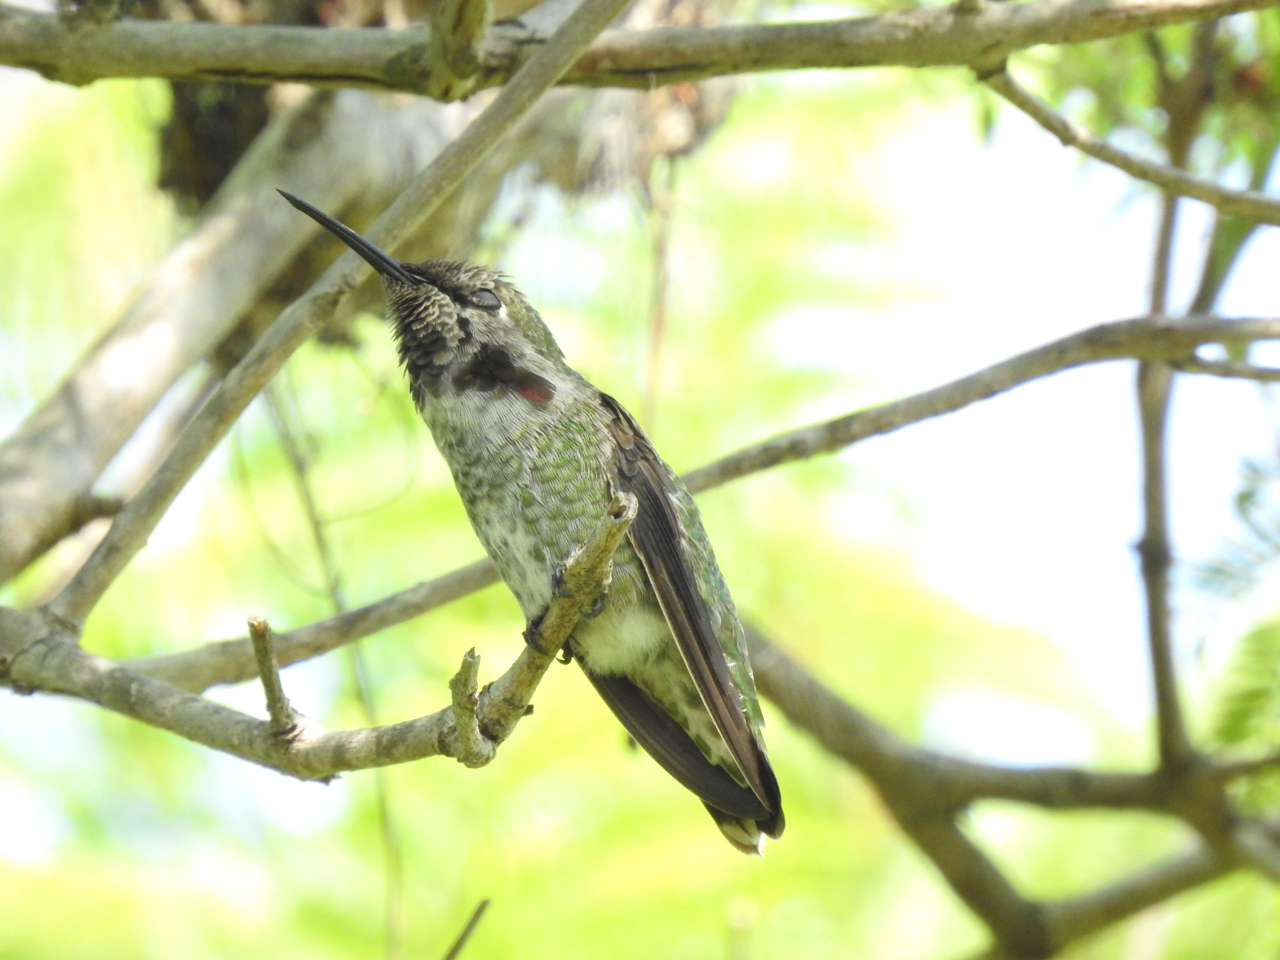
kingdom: Animalia
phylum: Chordata
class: Aves
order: Apodiformes
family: Trochilidae
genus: Calypte
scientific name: Calypte anna
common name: Anna's hummingbird
